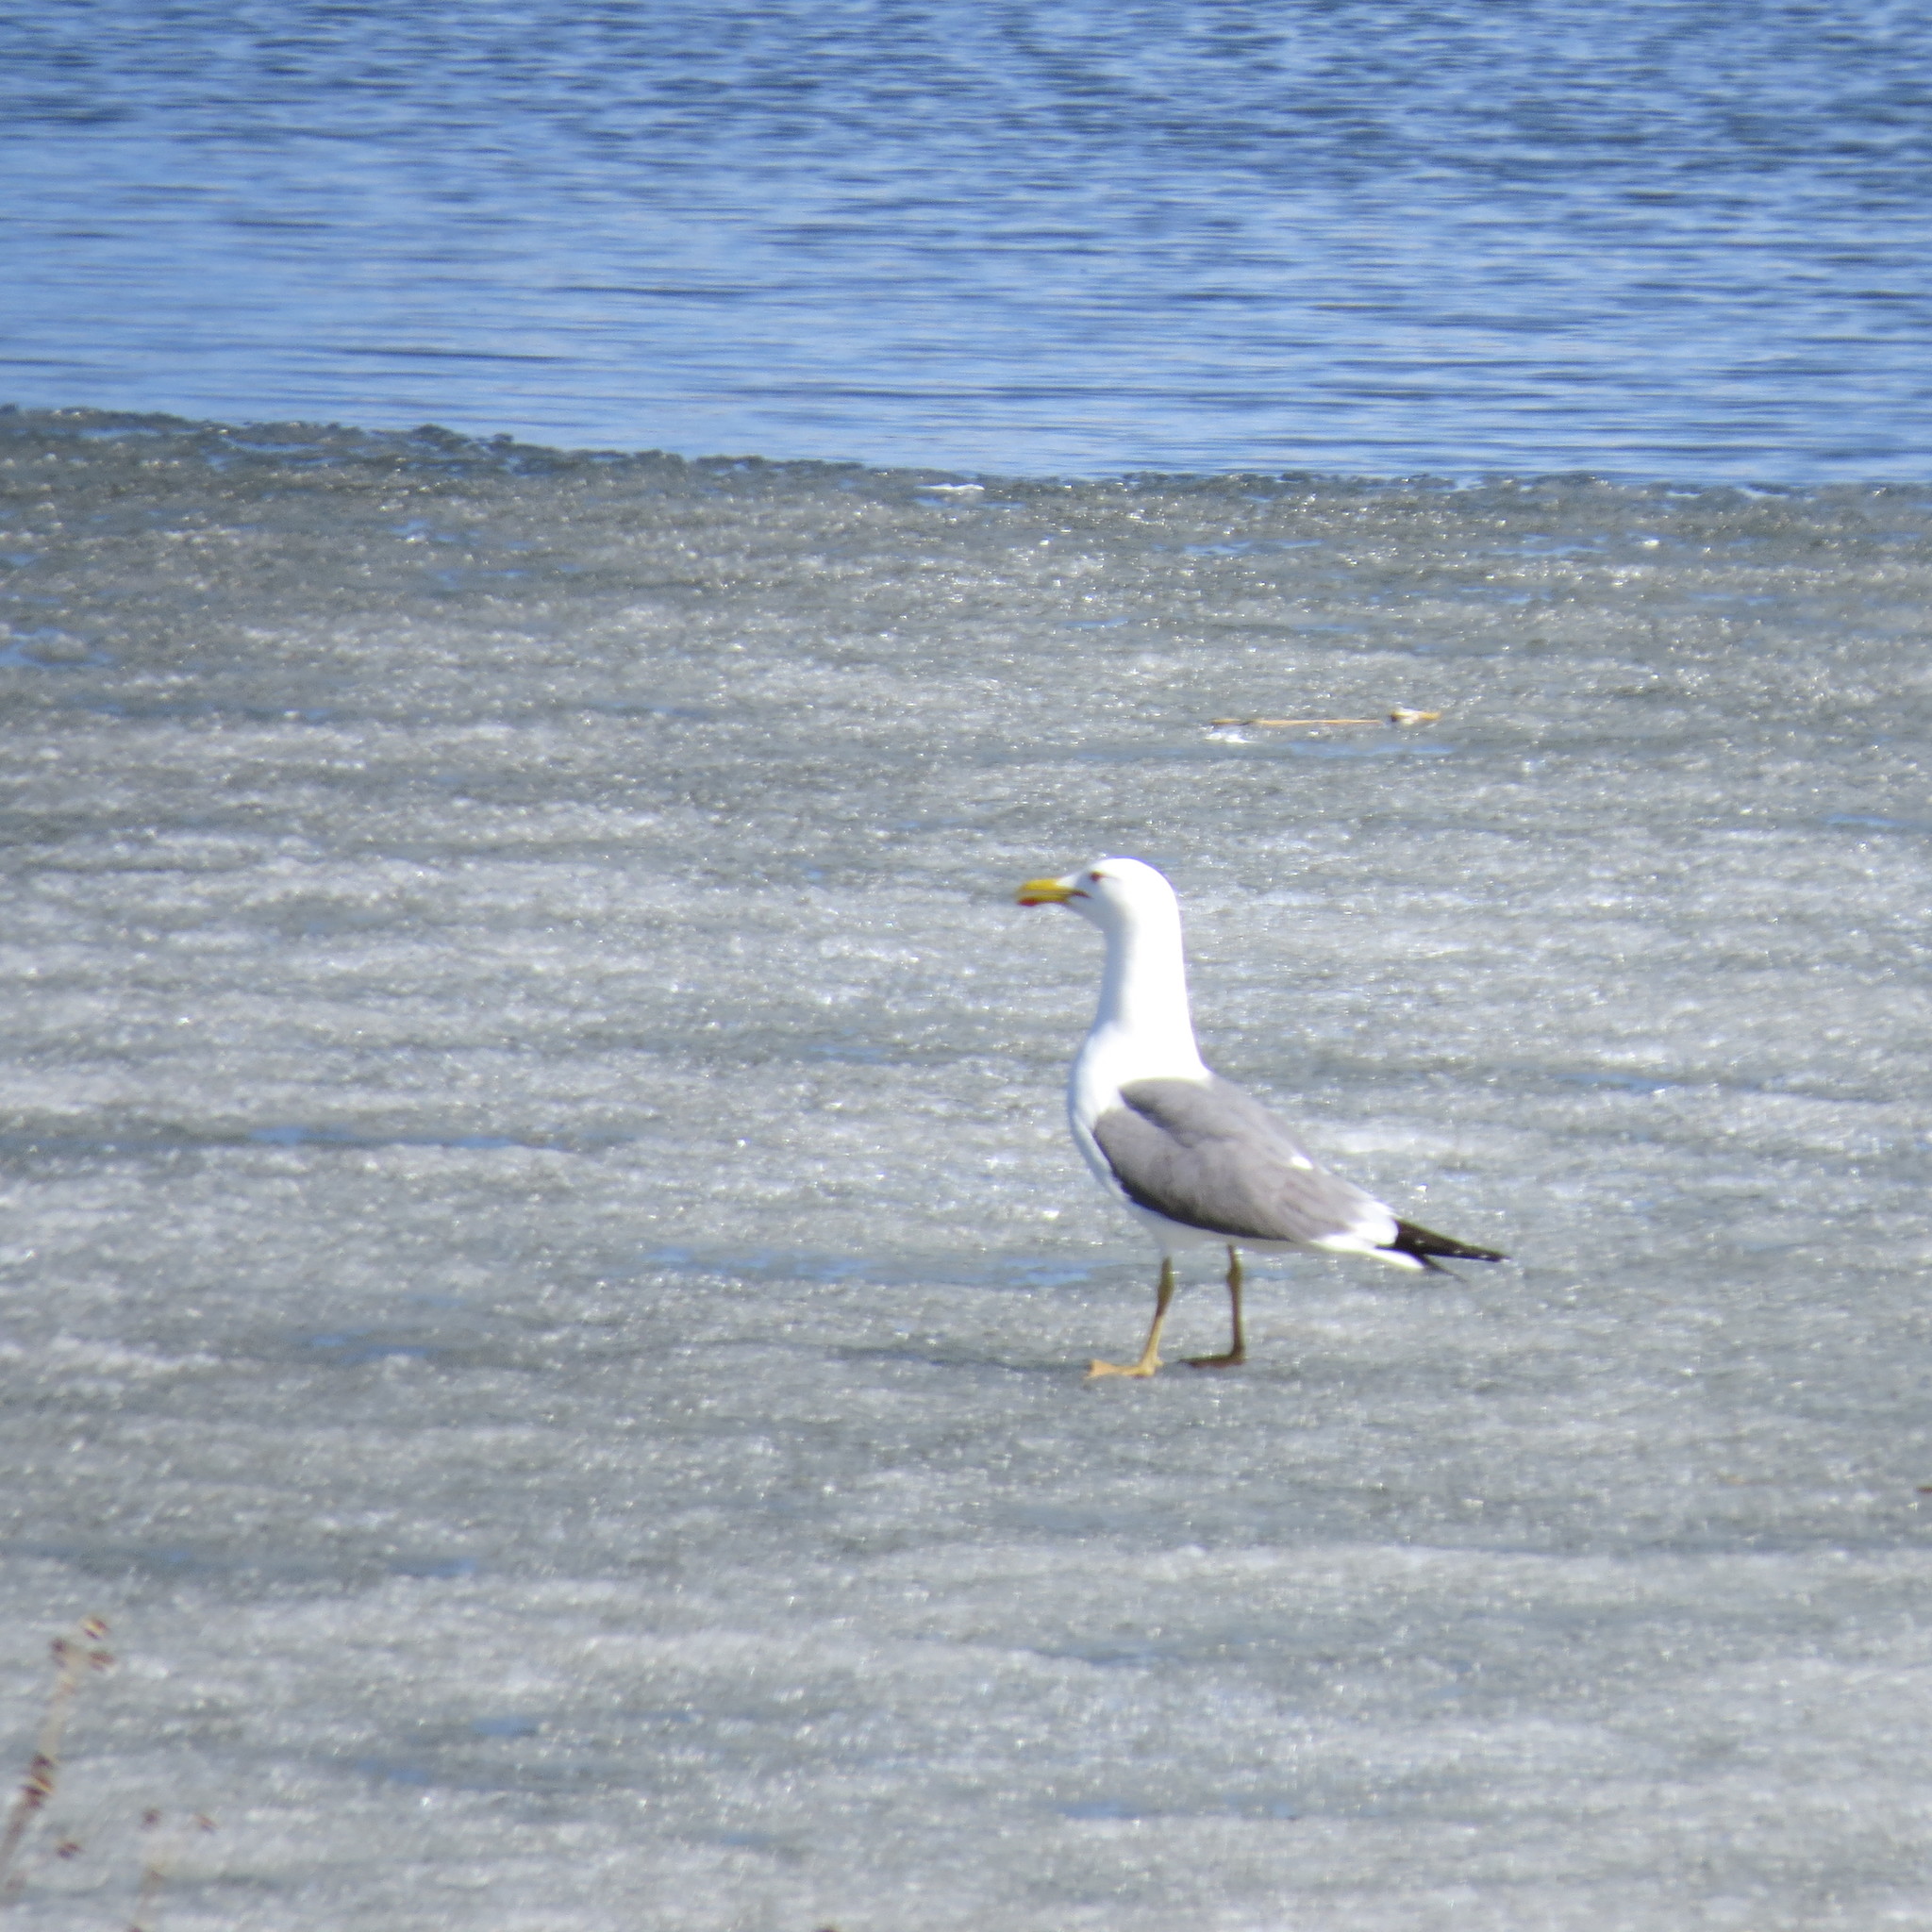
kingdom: Animalia
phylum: Chordata
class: Aves
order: Charadriiformes
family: Laridae
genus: Larus
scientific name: Larus fuscus
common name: Lesser black-backed gull
